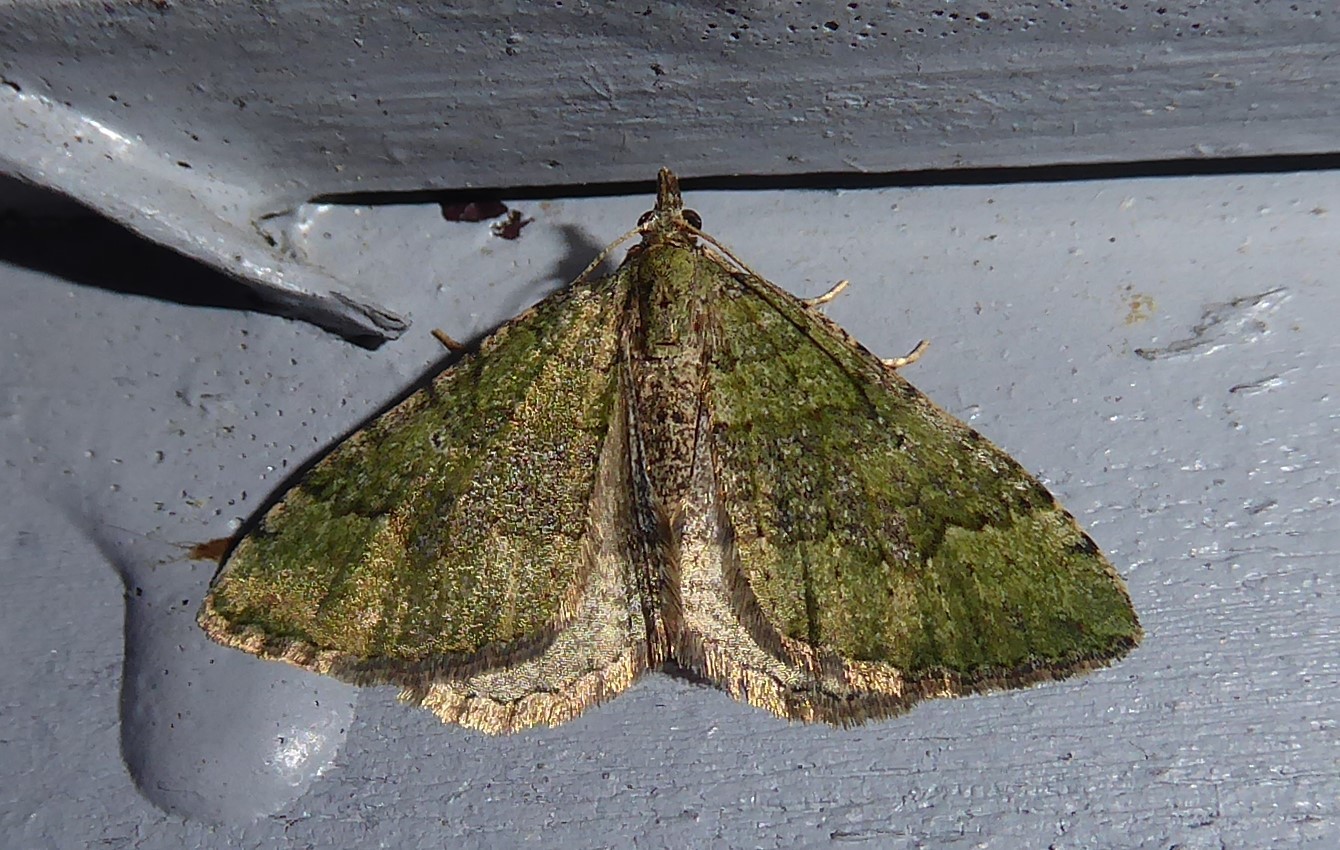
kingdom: Animalia
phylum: Arthropoda
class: Insecta
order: Lepidoptera
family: Geometridae
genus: Epyaxa
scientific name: Epyaxa rosearia
